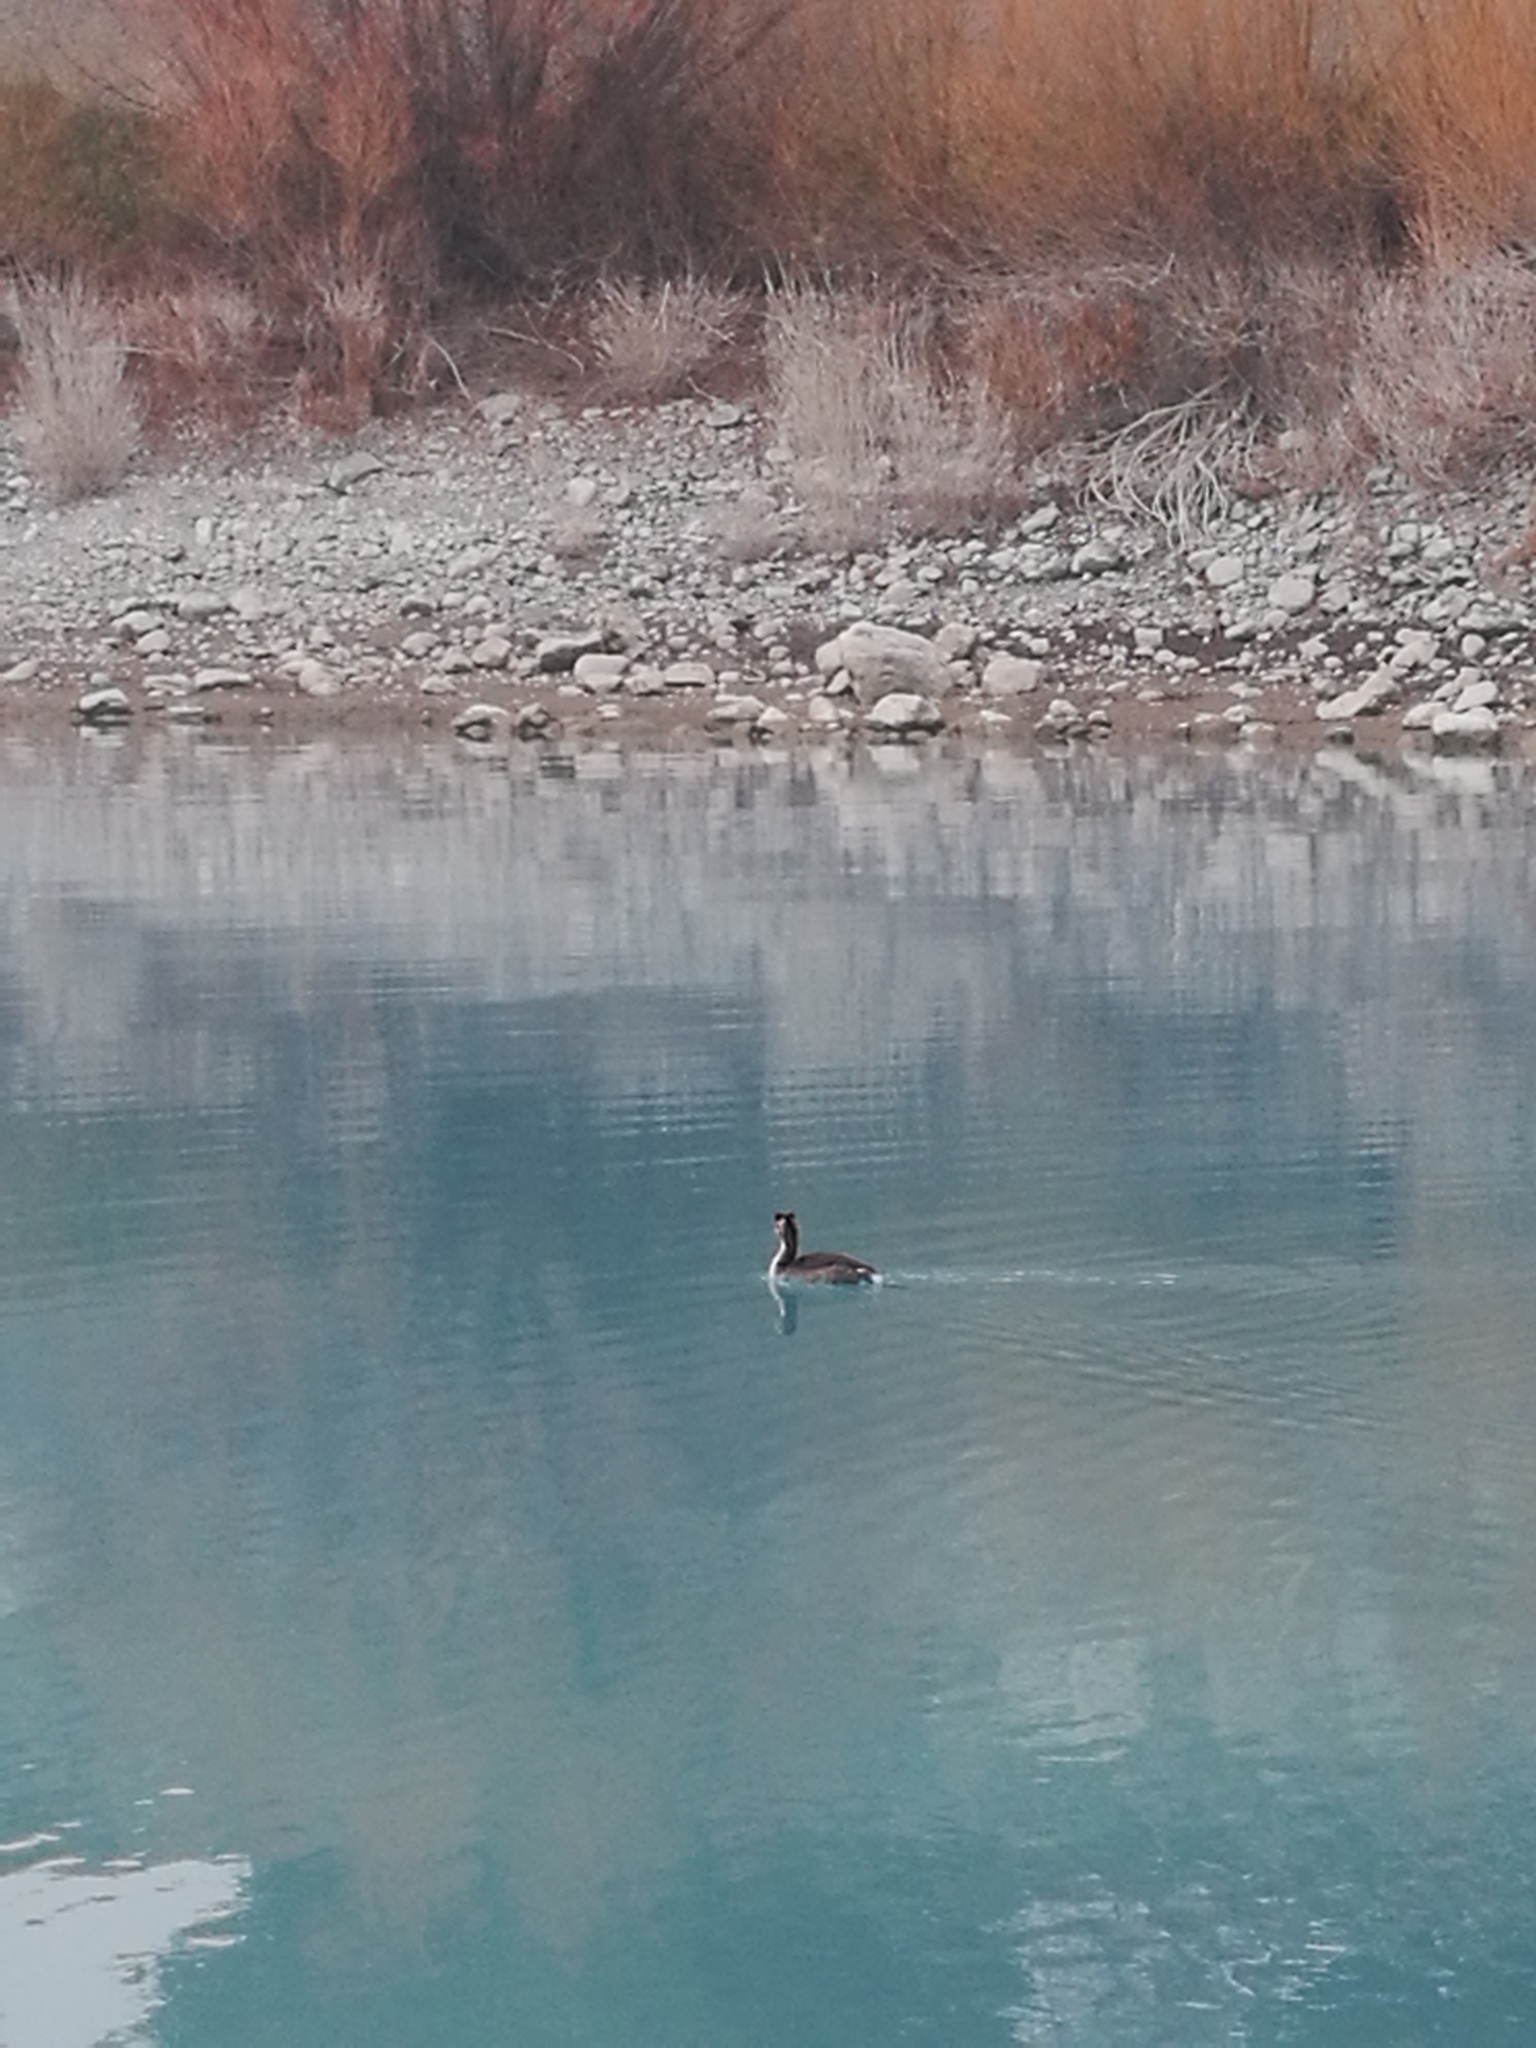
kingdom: Animalia
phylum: Chordata
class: Aves
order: Podicipediformes
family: Podicipedidae
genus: Podiceps
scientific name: Podiceps cristatus
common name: Great crested grebe
